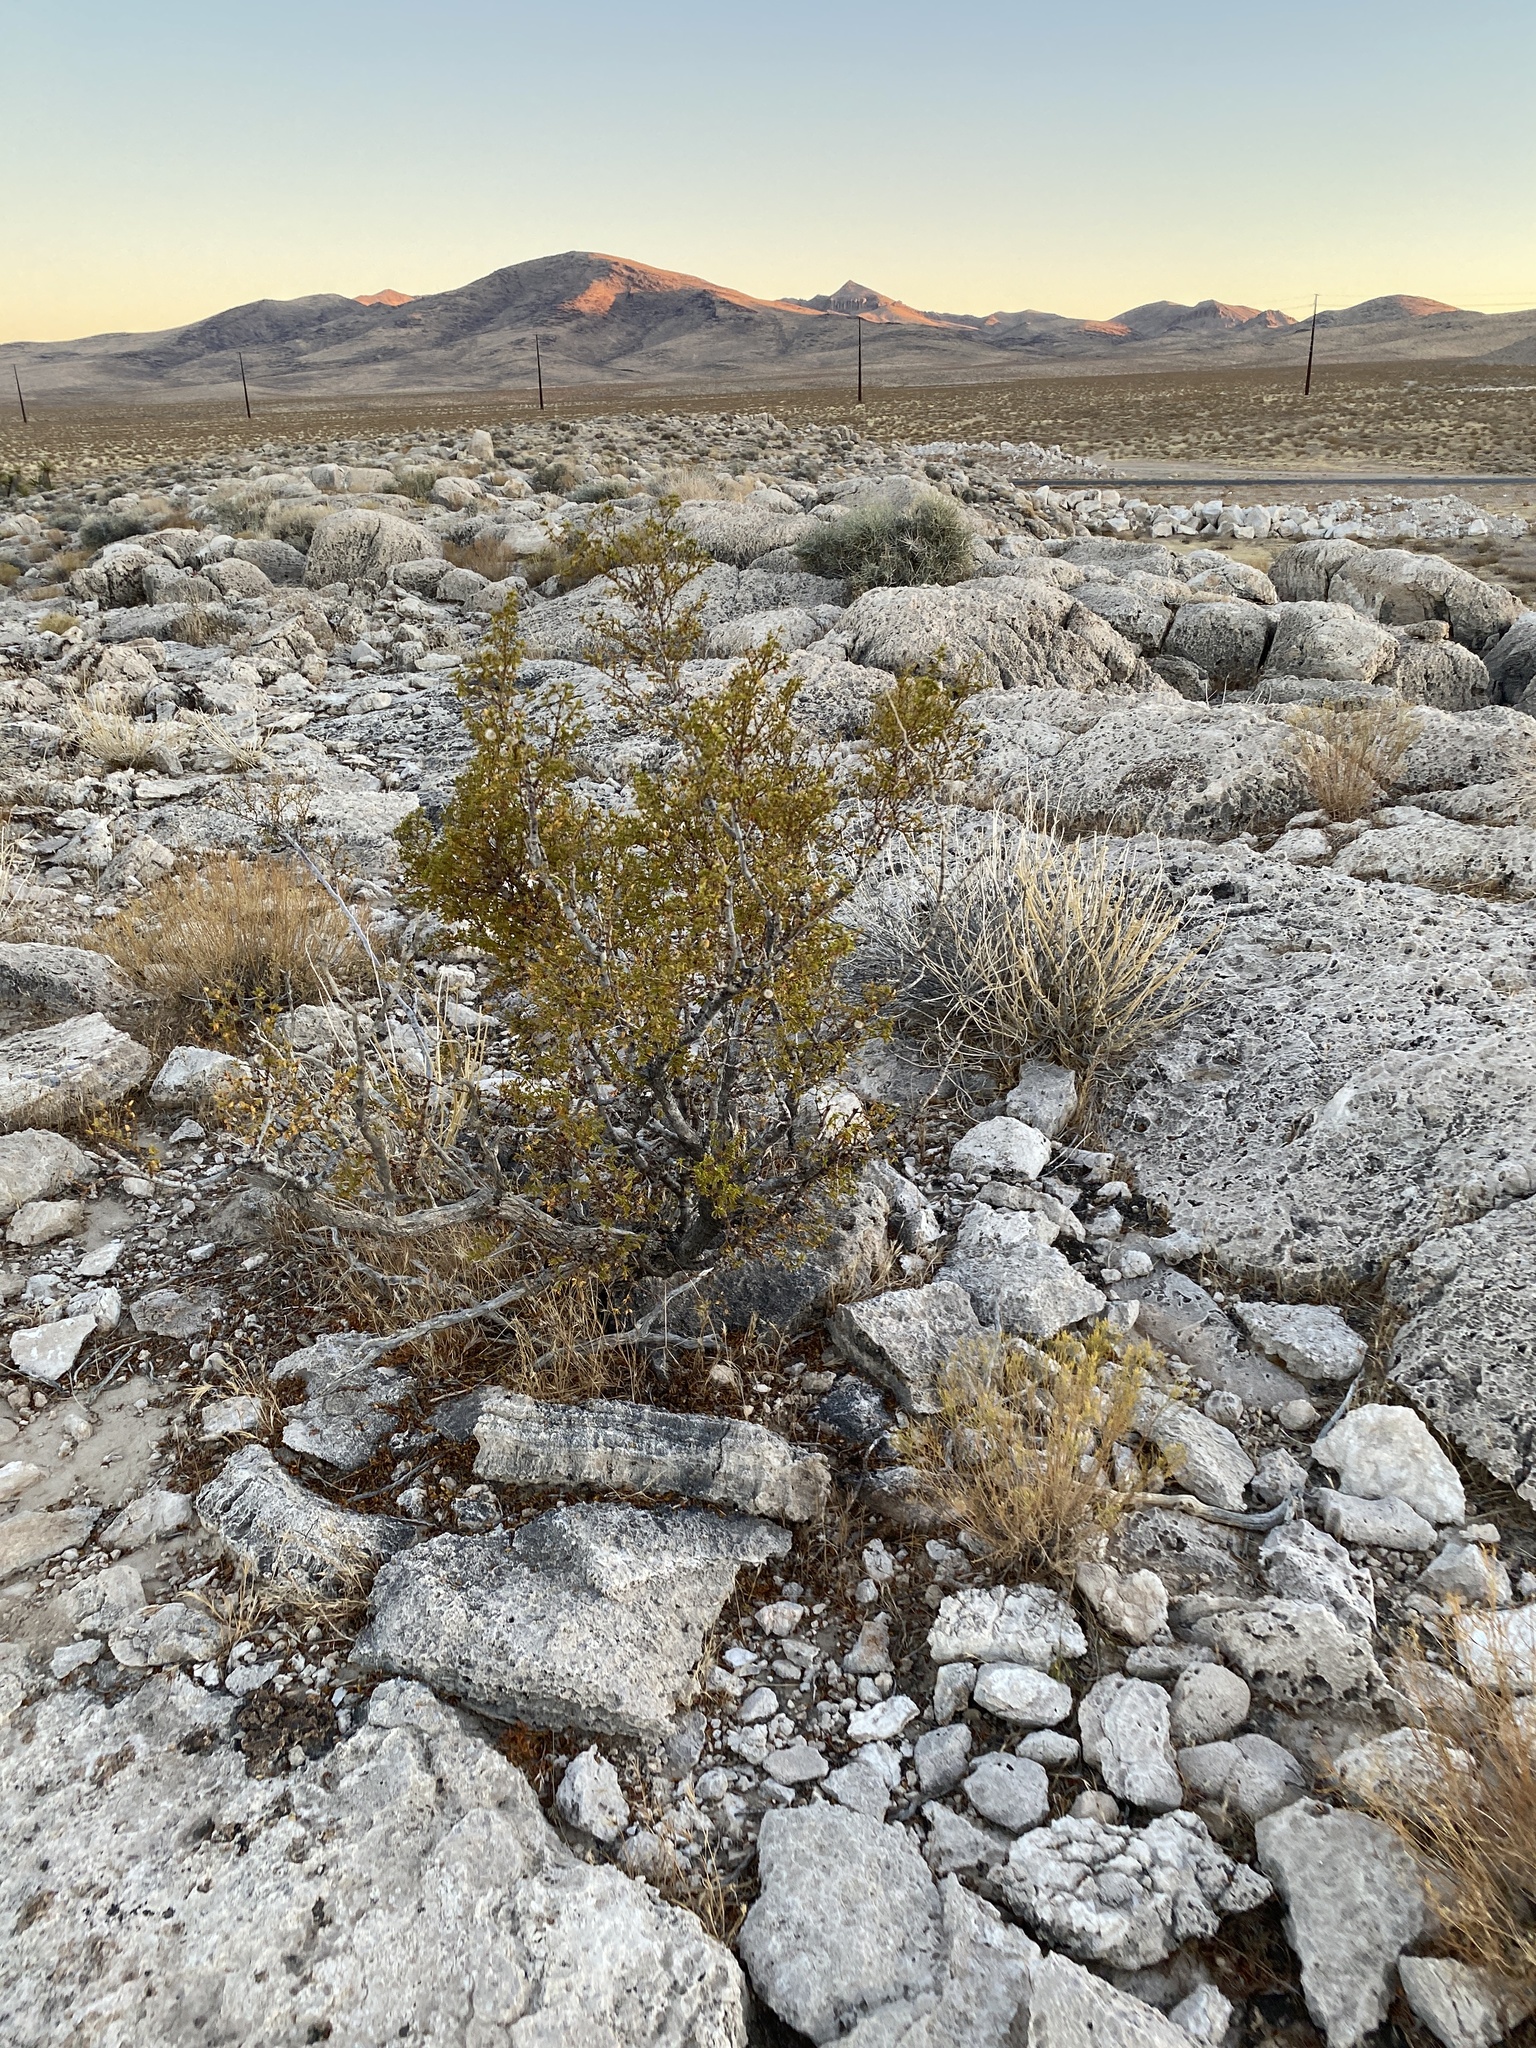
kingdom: Plantae
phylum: Tracheophyta
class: Magnoliopsida
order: Zygophyllales
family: Zygophyllaceae
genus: Larrea
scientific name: Larrea tridentata
